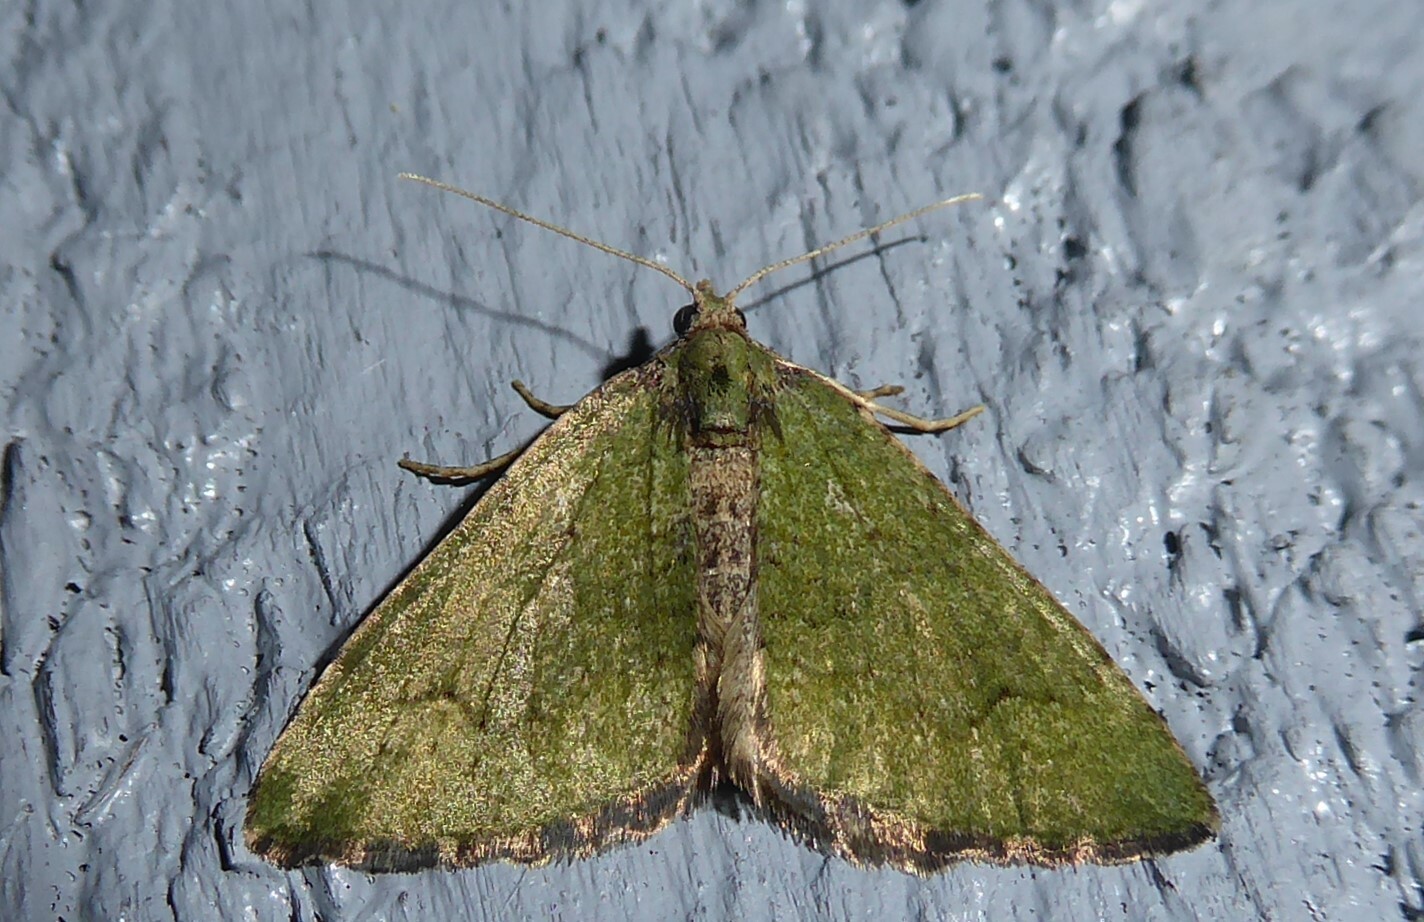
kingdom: Animalia
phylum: Arthropoda
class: Insecta
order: Lepidoptera
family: Geometridae
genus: Epyaxa
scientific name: Epyaxa rosearia
